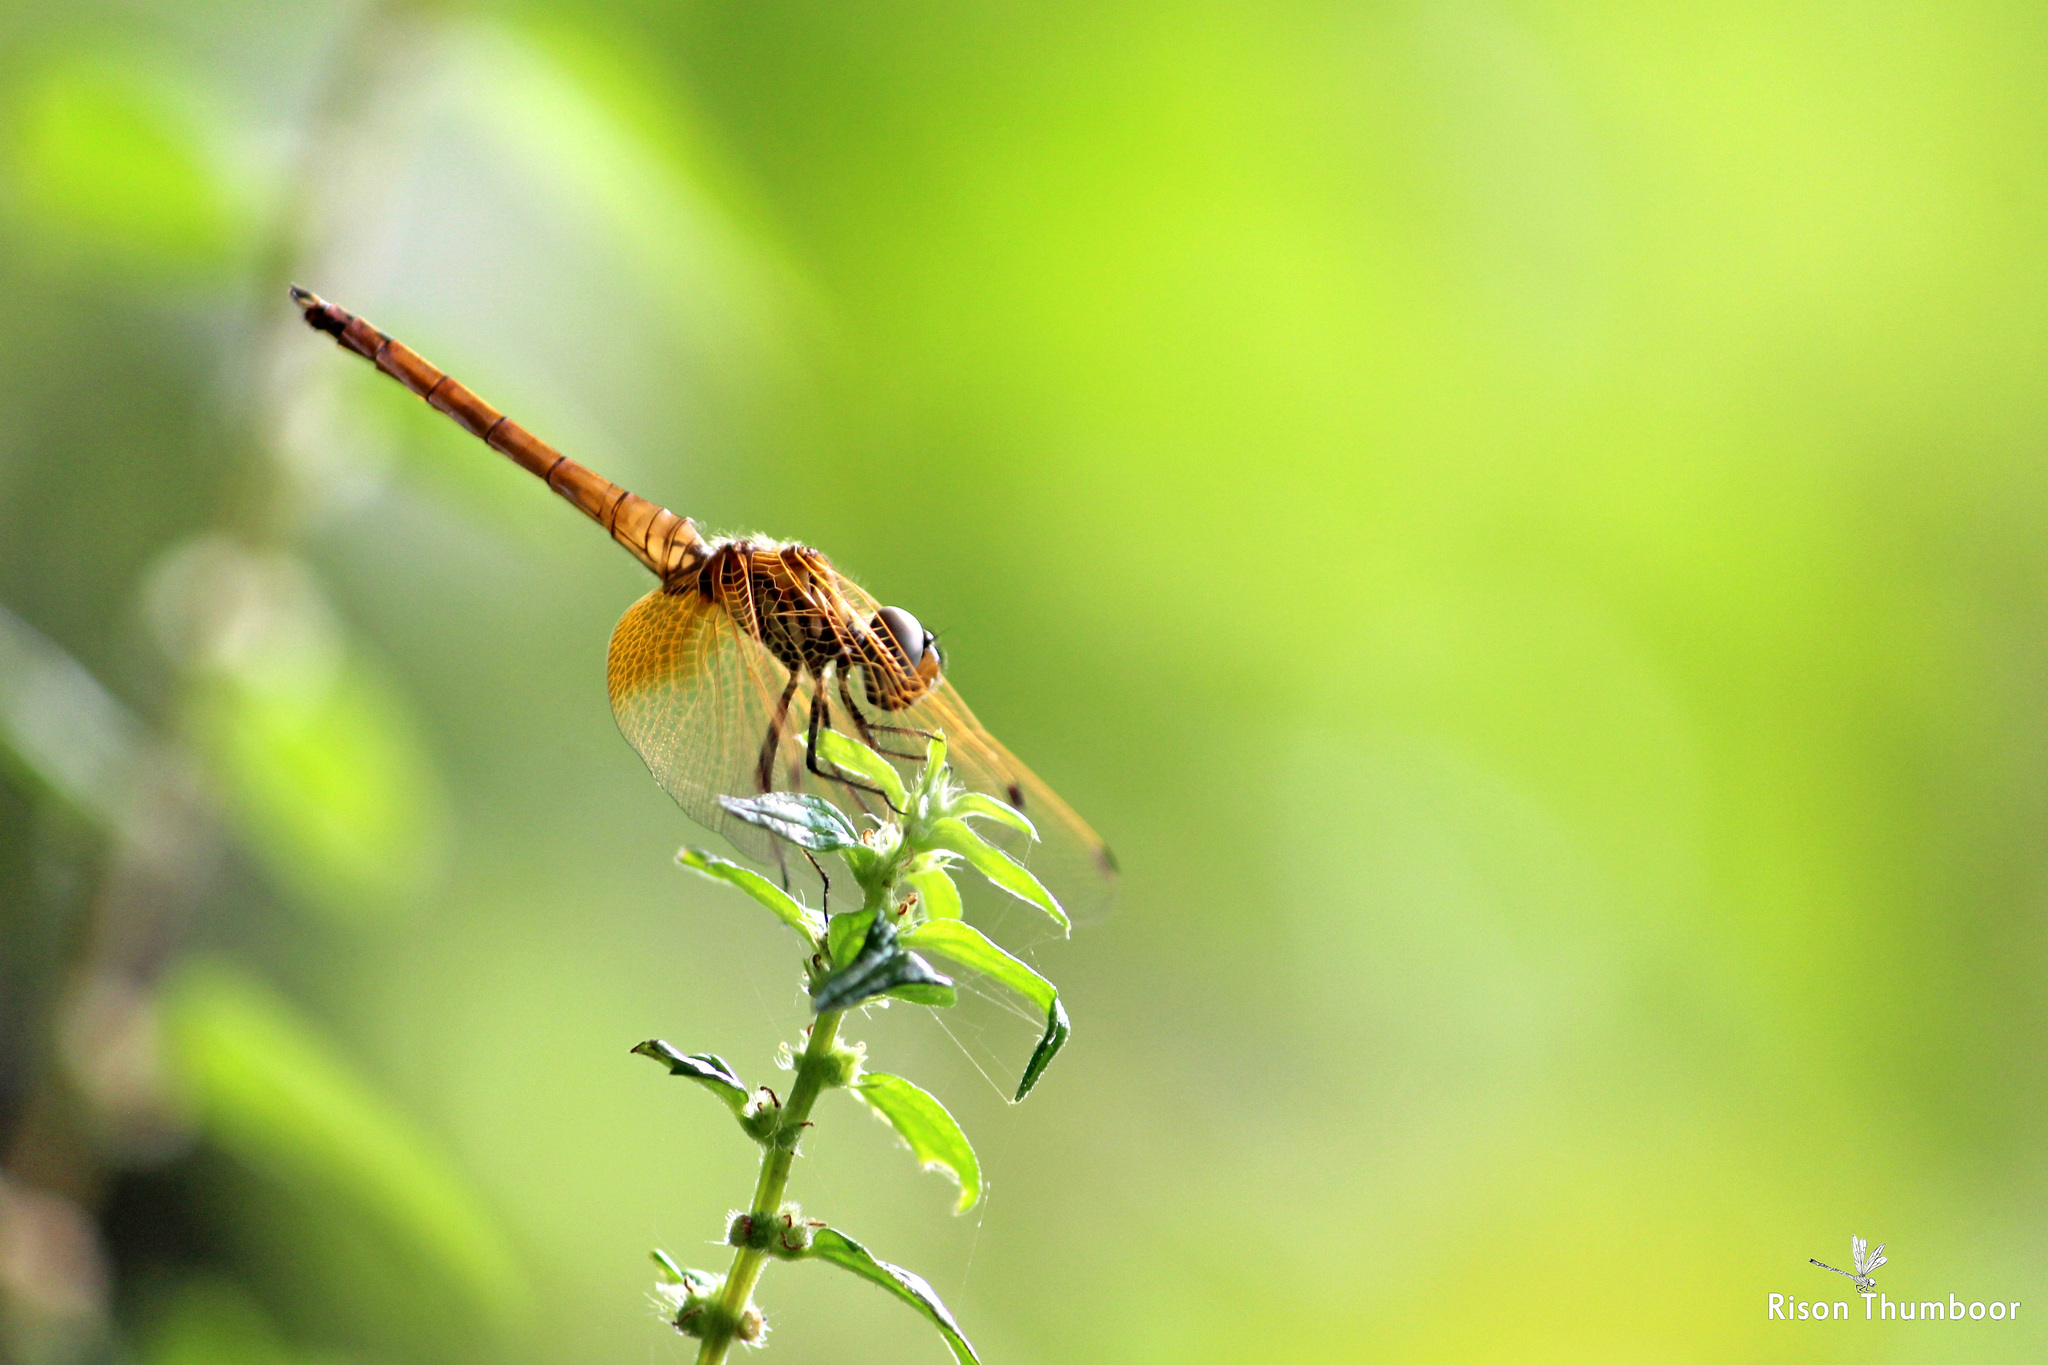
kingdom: Animalia
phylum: Arthropoda
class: Insecta
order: Odonata
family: Libellulidae
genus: Trithemis
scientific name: Trithemis aurora
